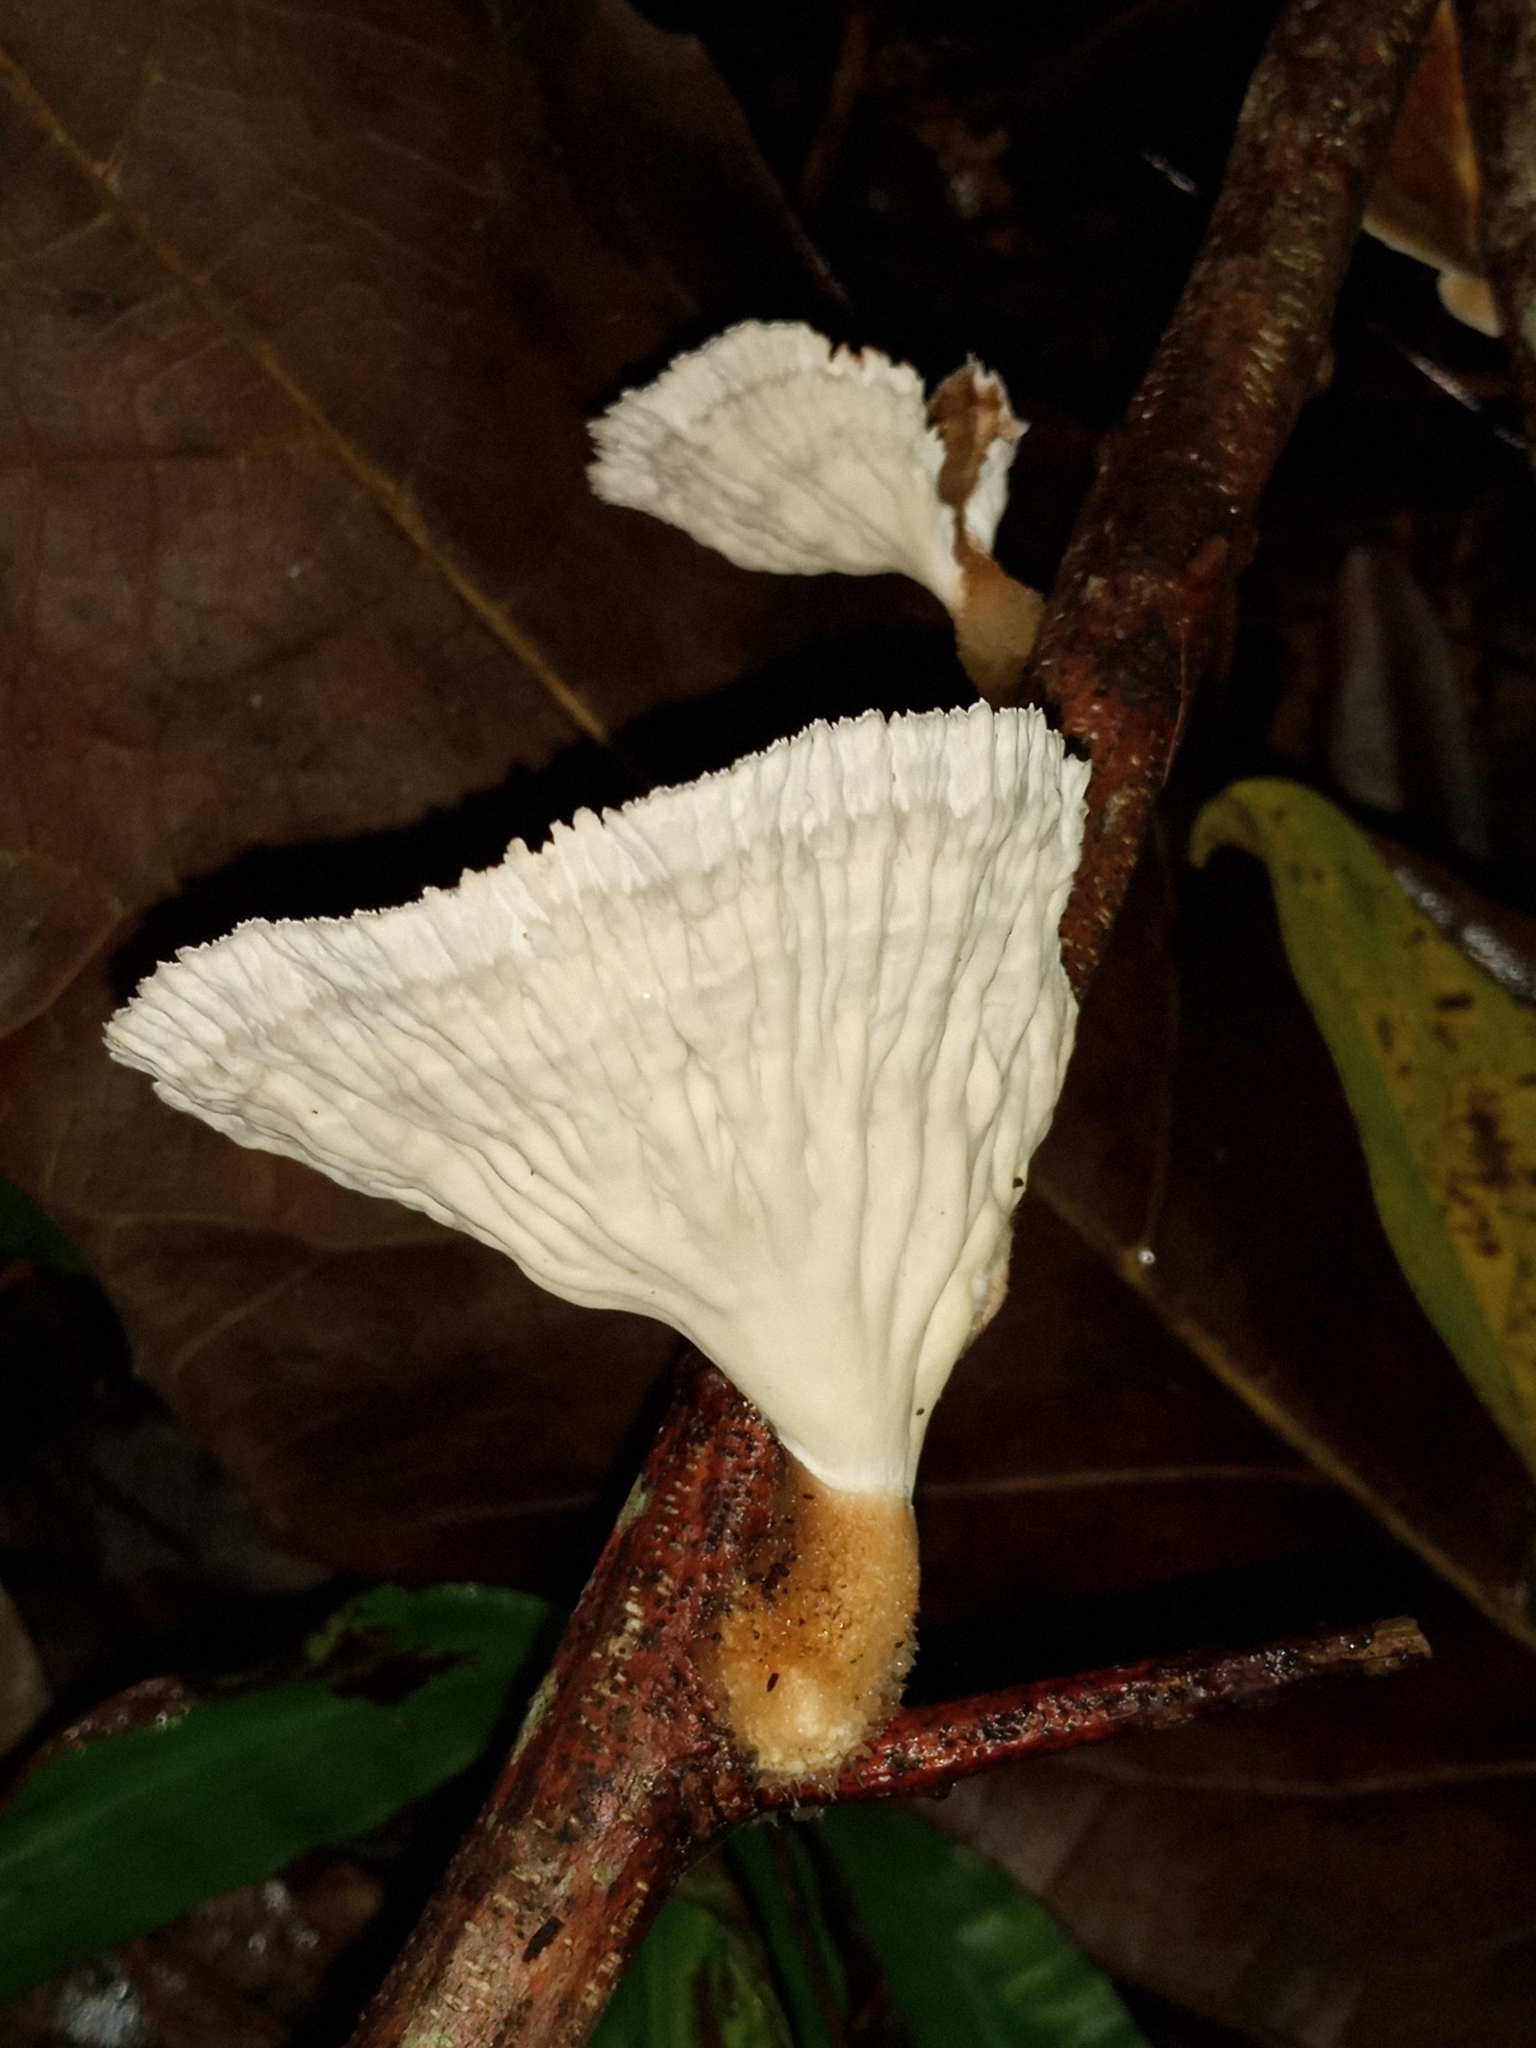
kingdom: Fungi
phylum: Basidiomycota
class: Agaricomycetes
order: Polyporales
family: Panaceae
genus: Cymatoderma
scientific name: Cymatoderma elegans
